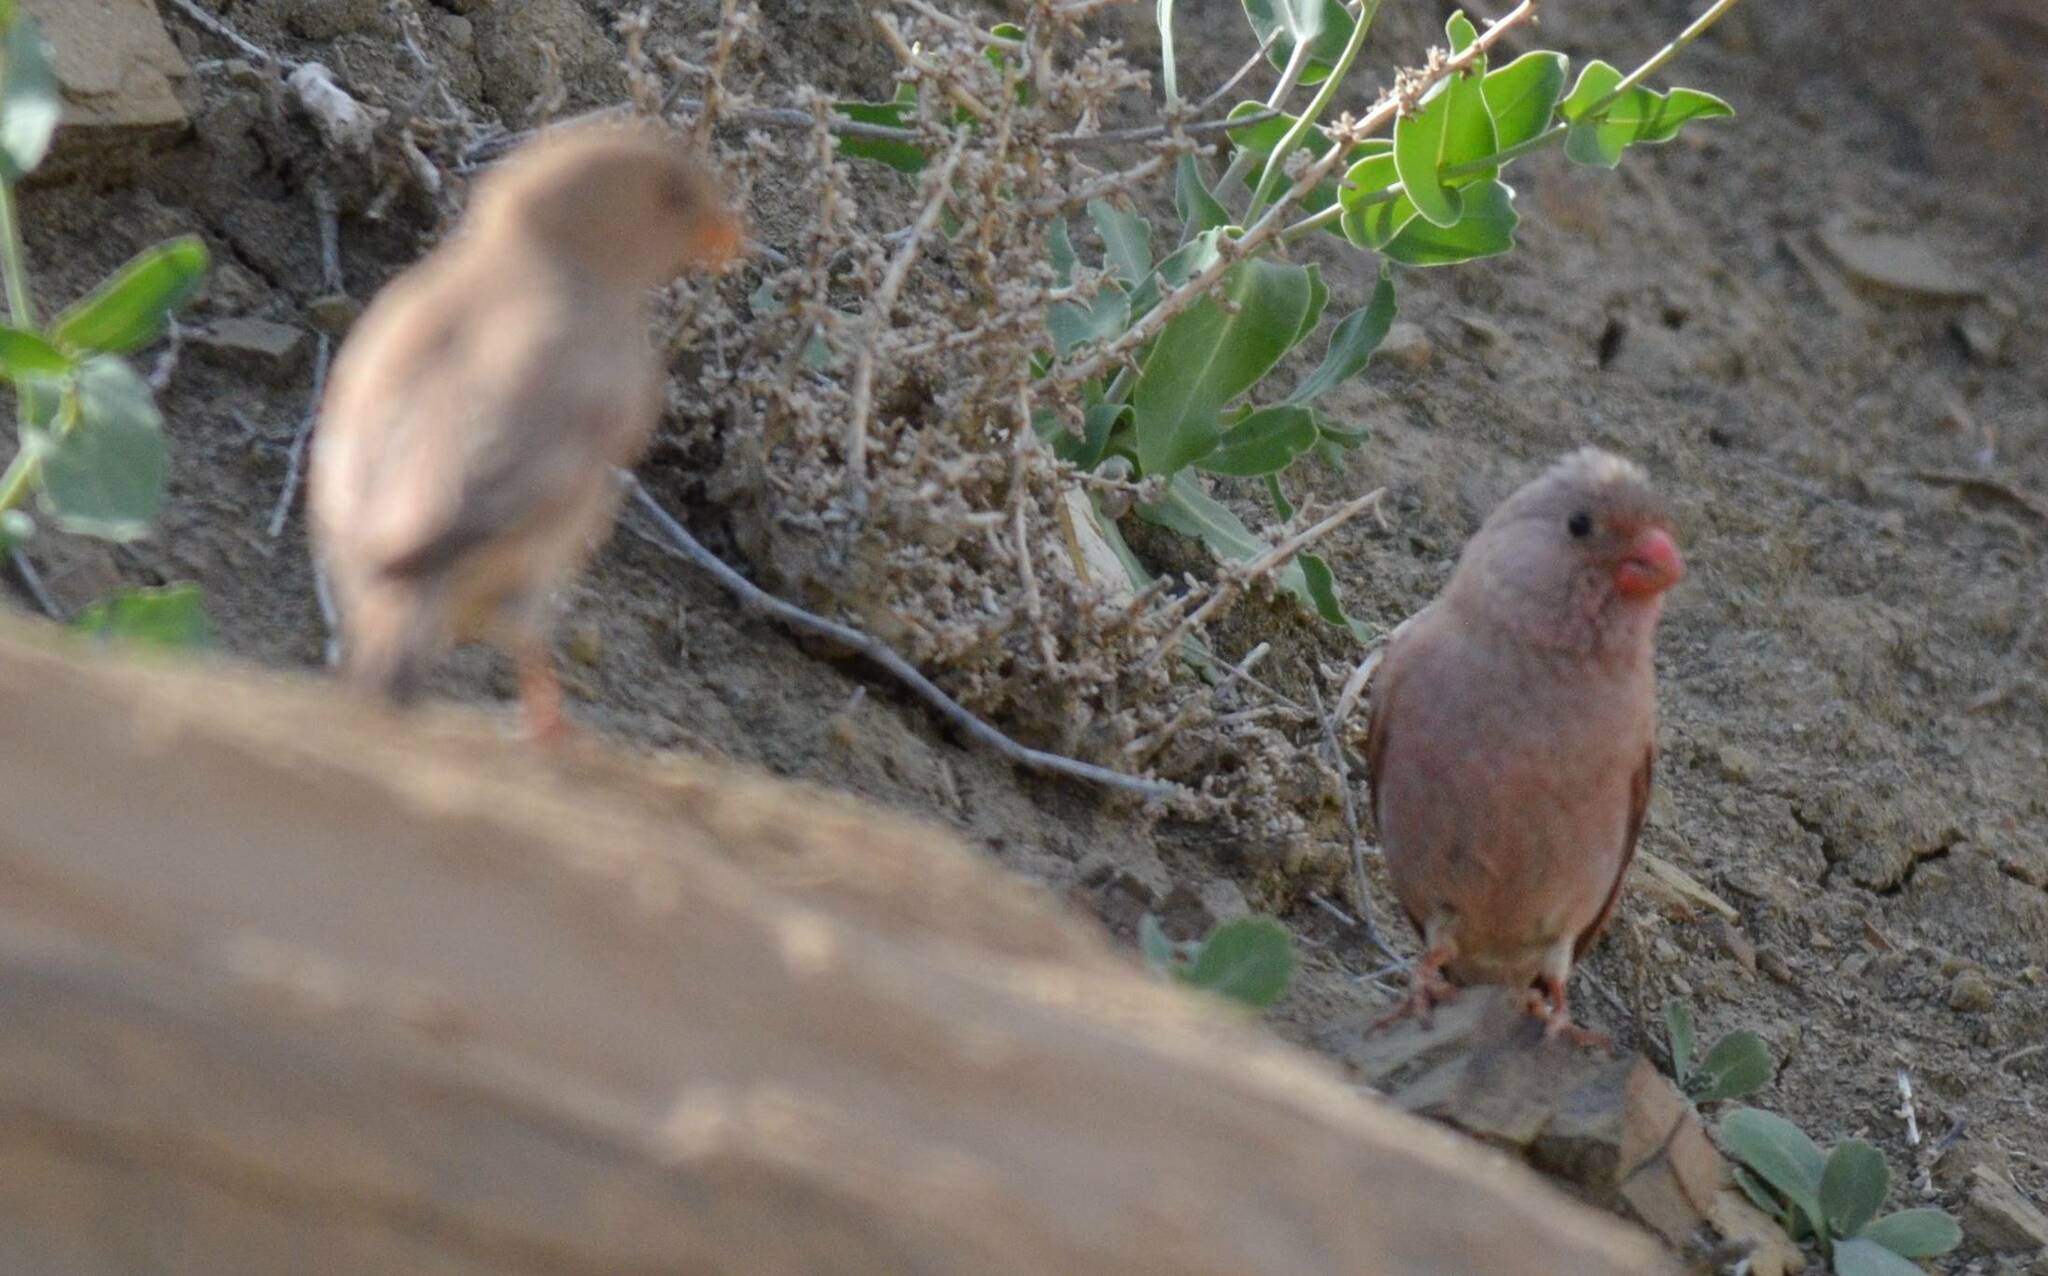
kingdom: Animalia
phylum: Chordata
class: Aves
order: Passeriformes
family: Fringillidae
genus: Bucanetes
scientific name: Bucanetes githagineus
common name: Trumpeter finch
